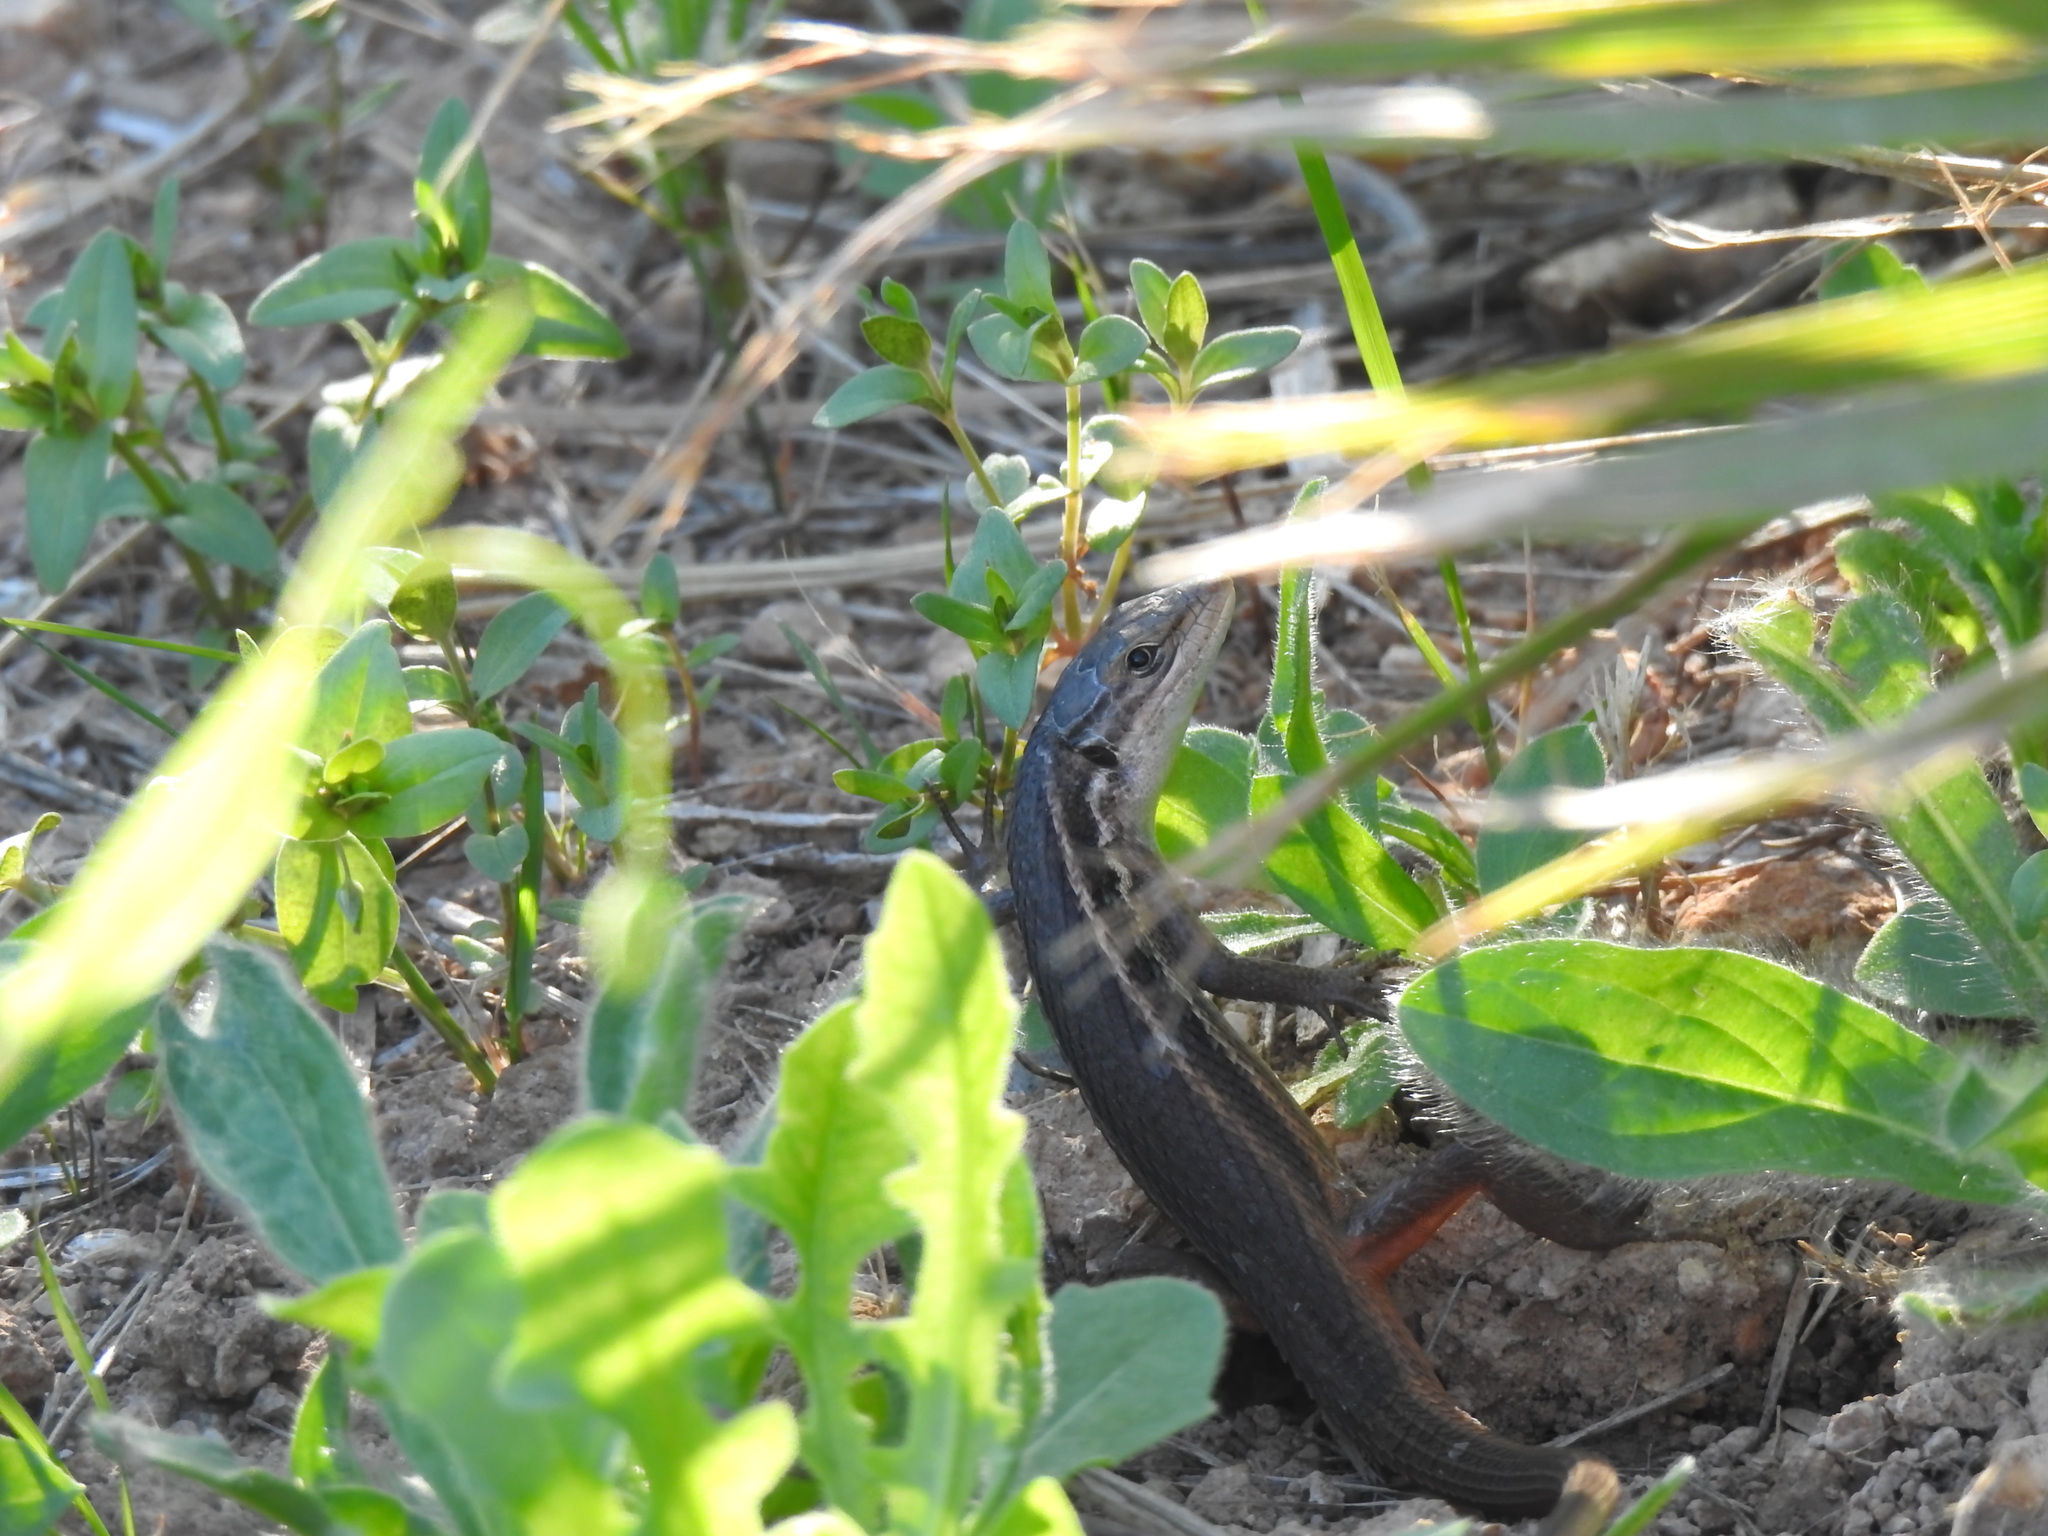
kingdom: Animalia
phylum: Chordata
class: Squamata
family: Lacertidae
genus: Psammodromus
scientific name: Psammodromus algirus
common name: Algerian psammodromus
